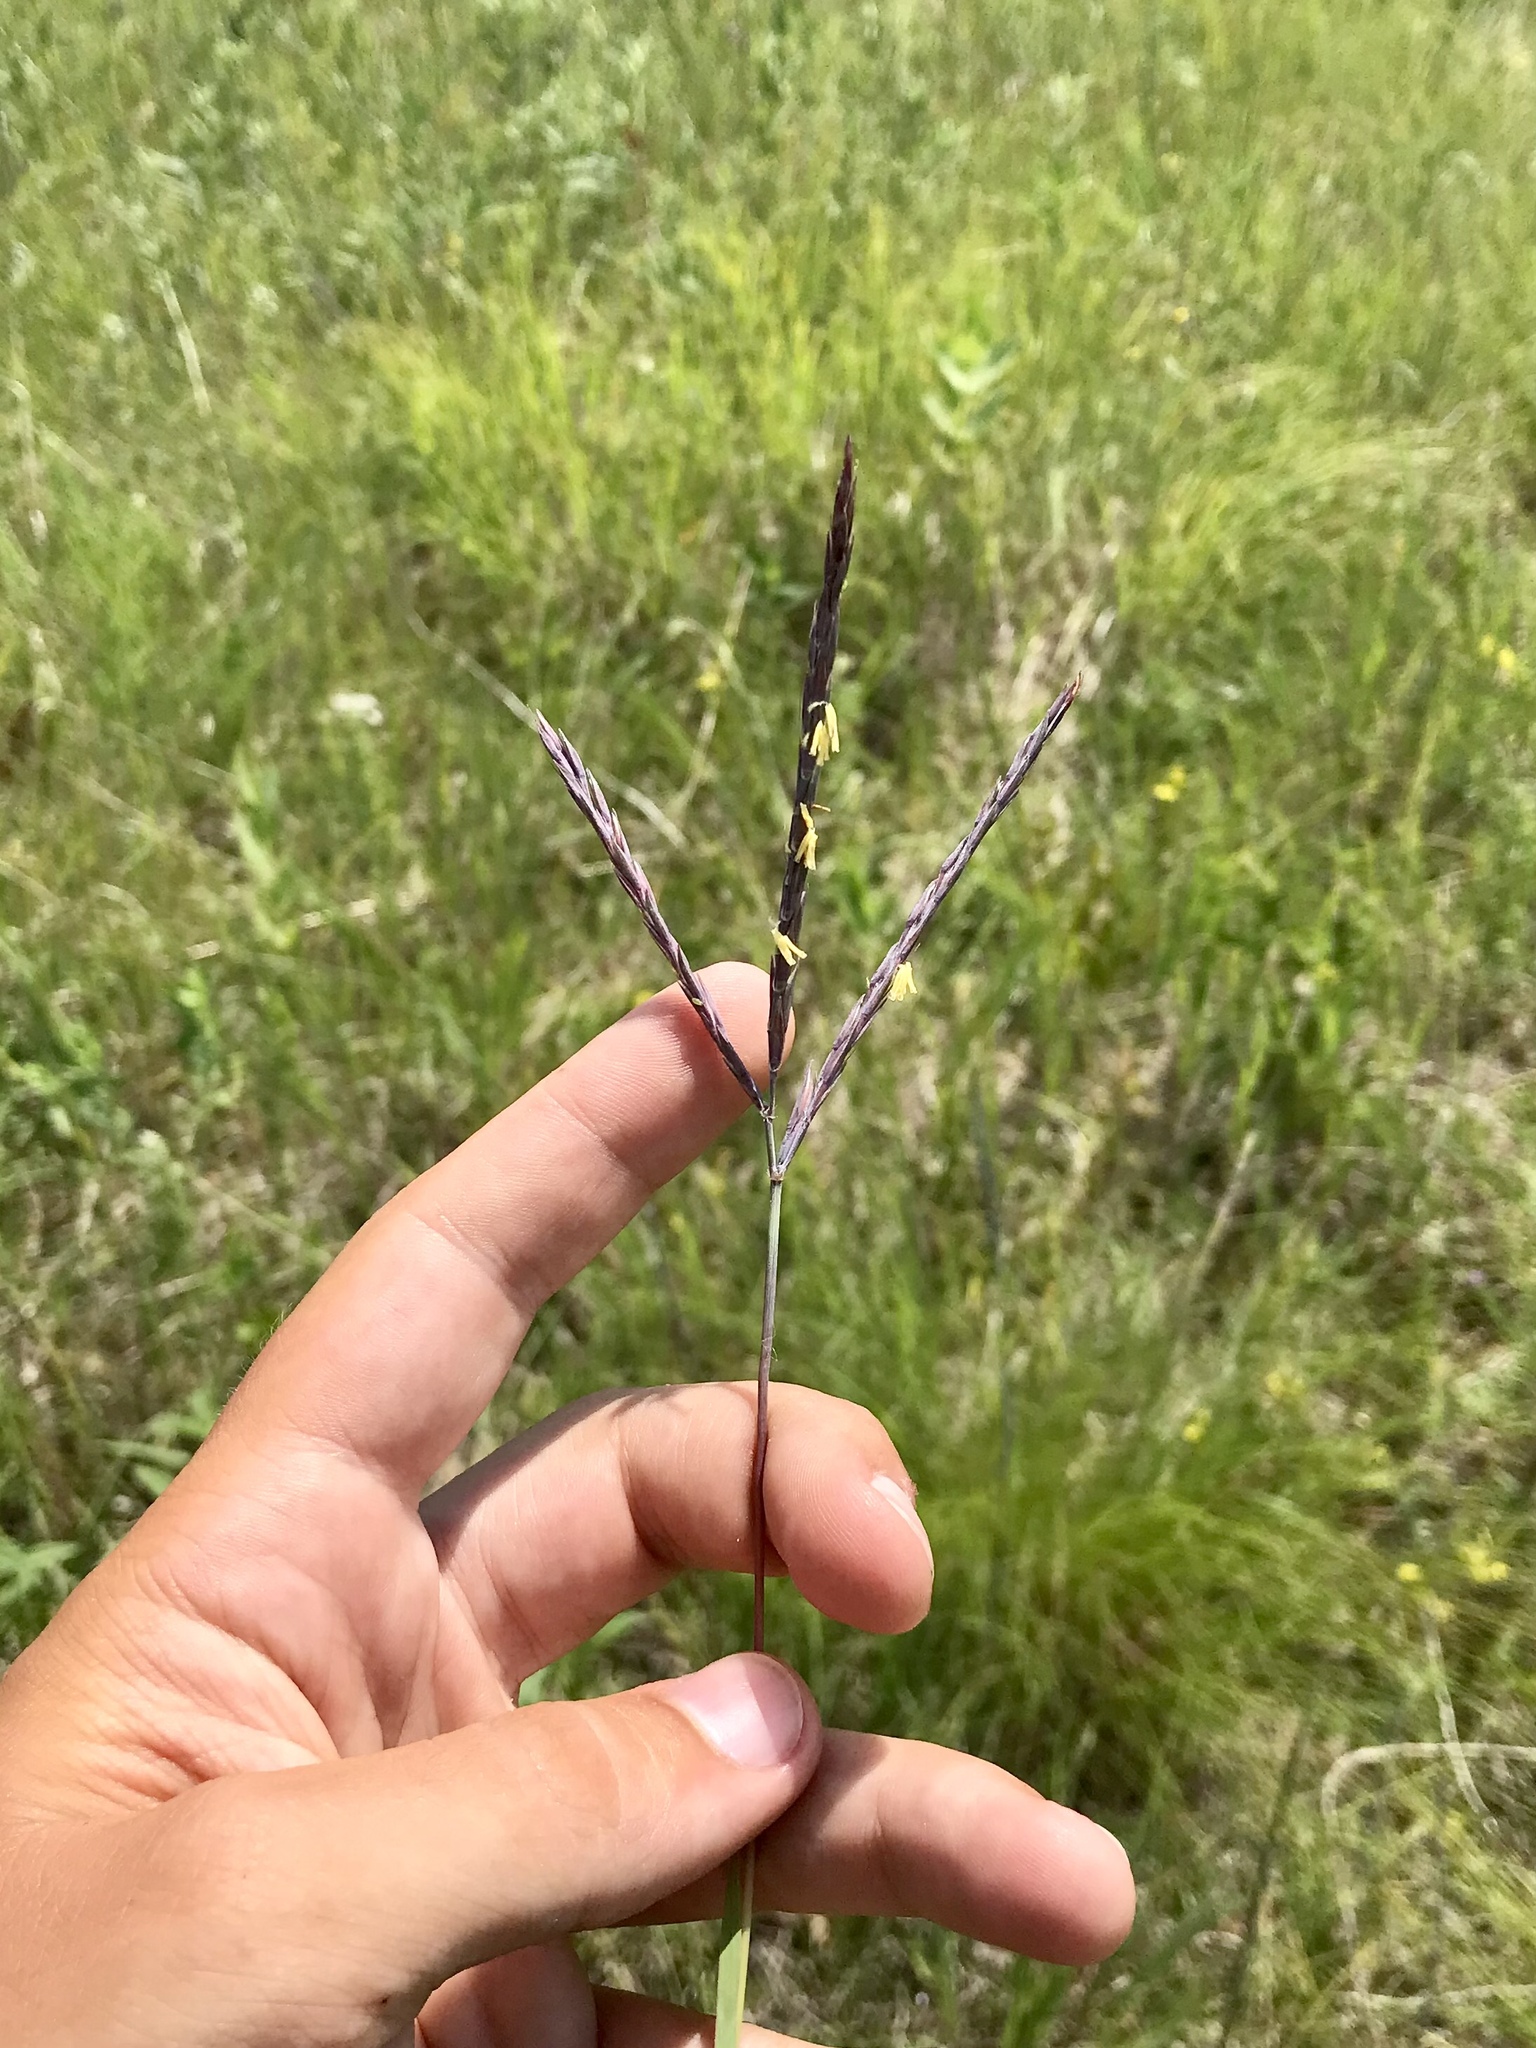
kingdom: Plantae
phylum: Tracheophyta
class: Liliopsida
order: Poales
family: Poaceae
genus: Andropogon
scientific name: Andropogon gerardi
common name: Big bluestem
